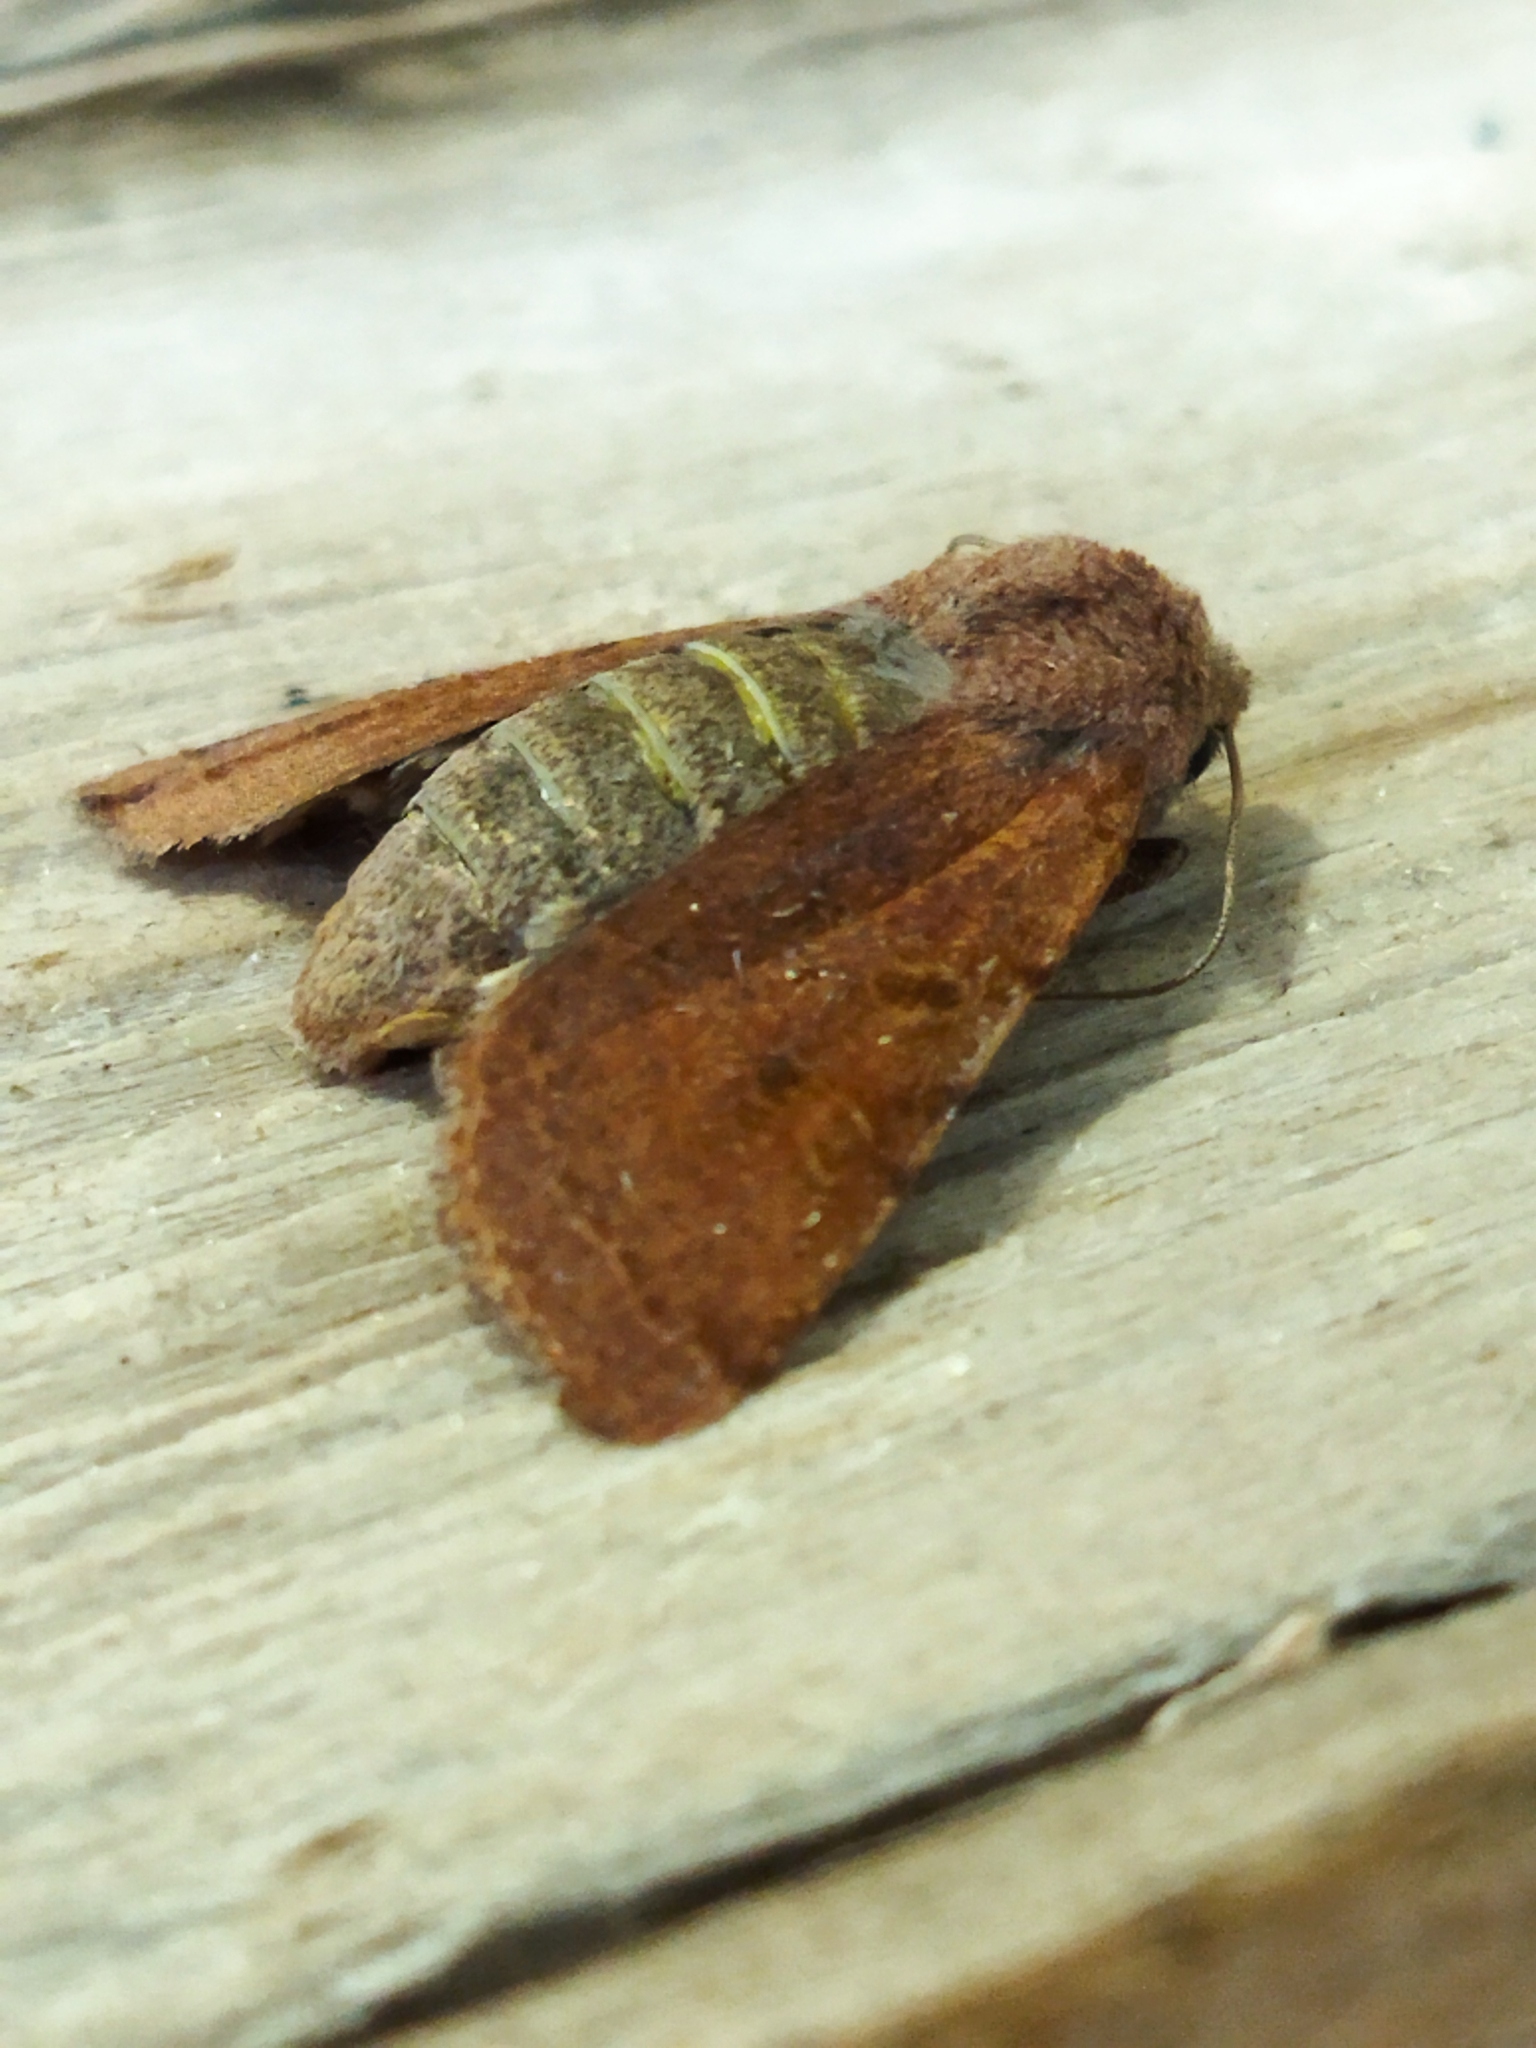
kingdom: Animalia
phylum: Arthropoda
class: Insecta
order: Lepidoptera
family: Noctuidae
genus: Agrochola
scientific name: Agrochola lychnidis
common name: Beaded chestnut
